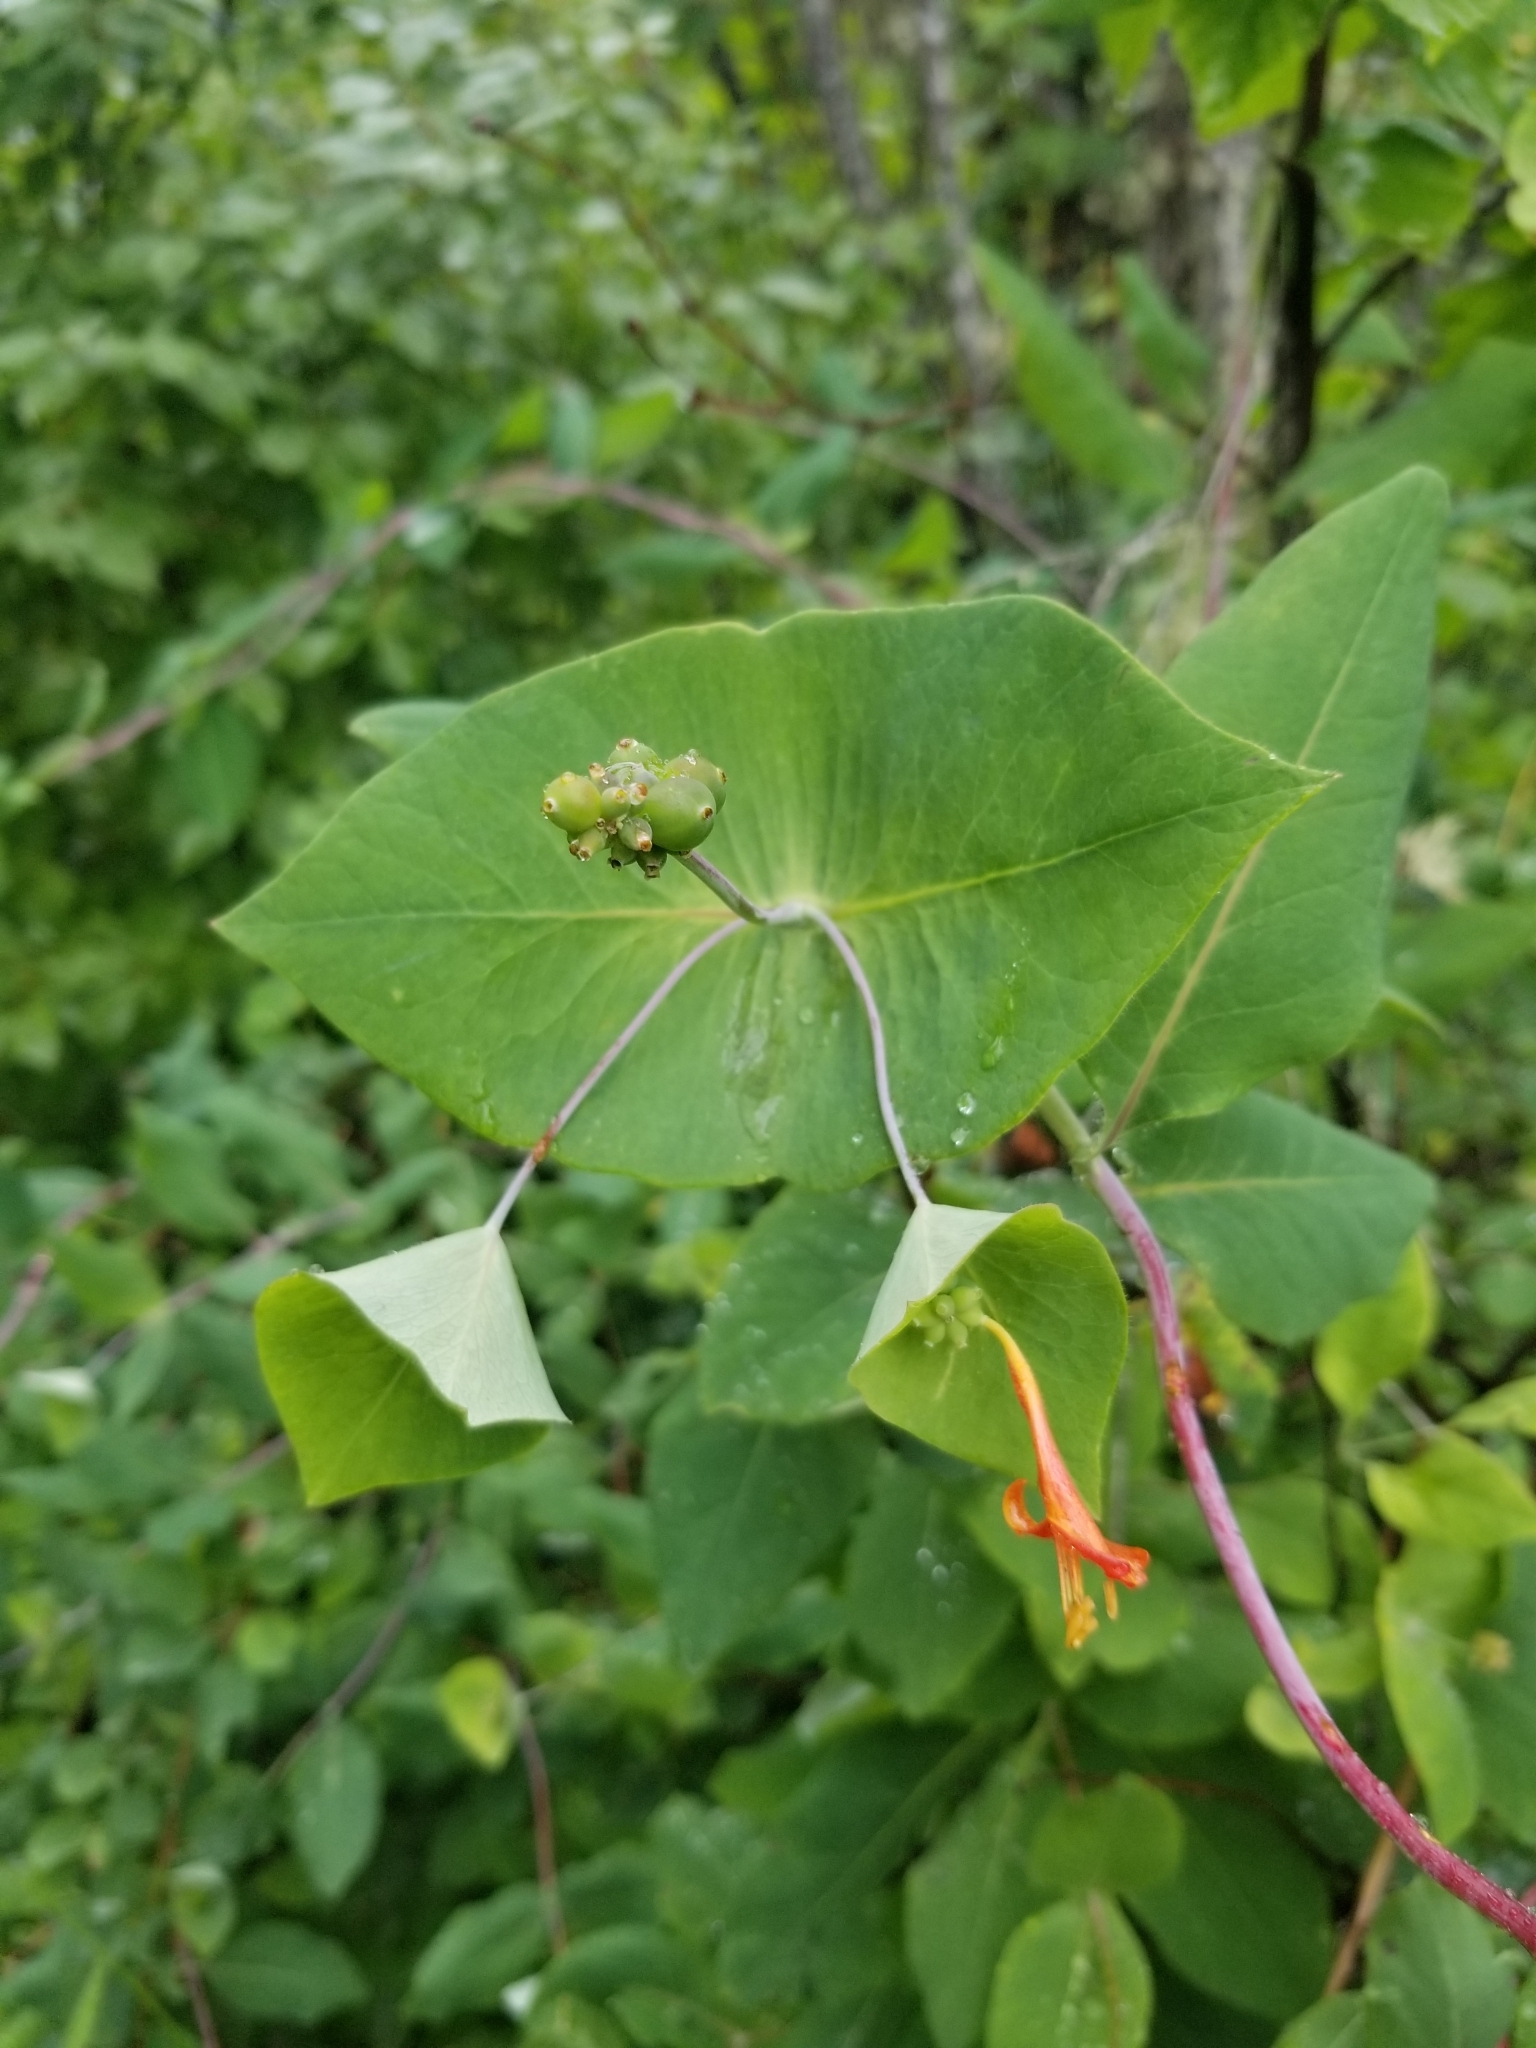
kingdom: Plantae
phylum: Tracheophyta
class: Magnoliopsida
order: Dipsacales
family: Caprifoliaceae
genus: Lonicera
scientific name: Lonicera ciliosa
